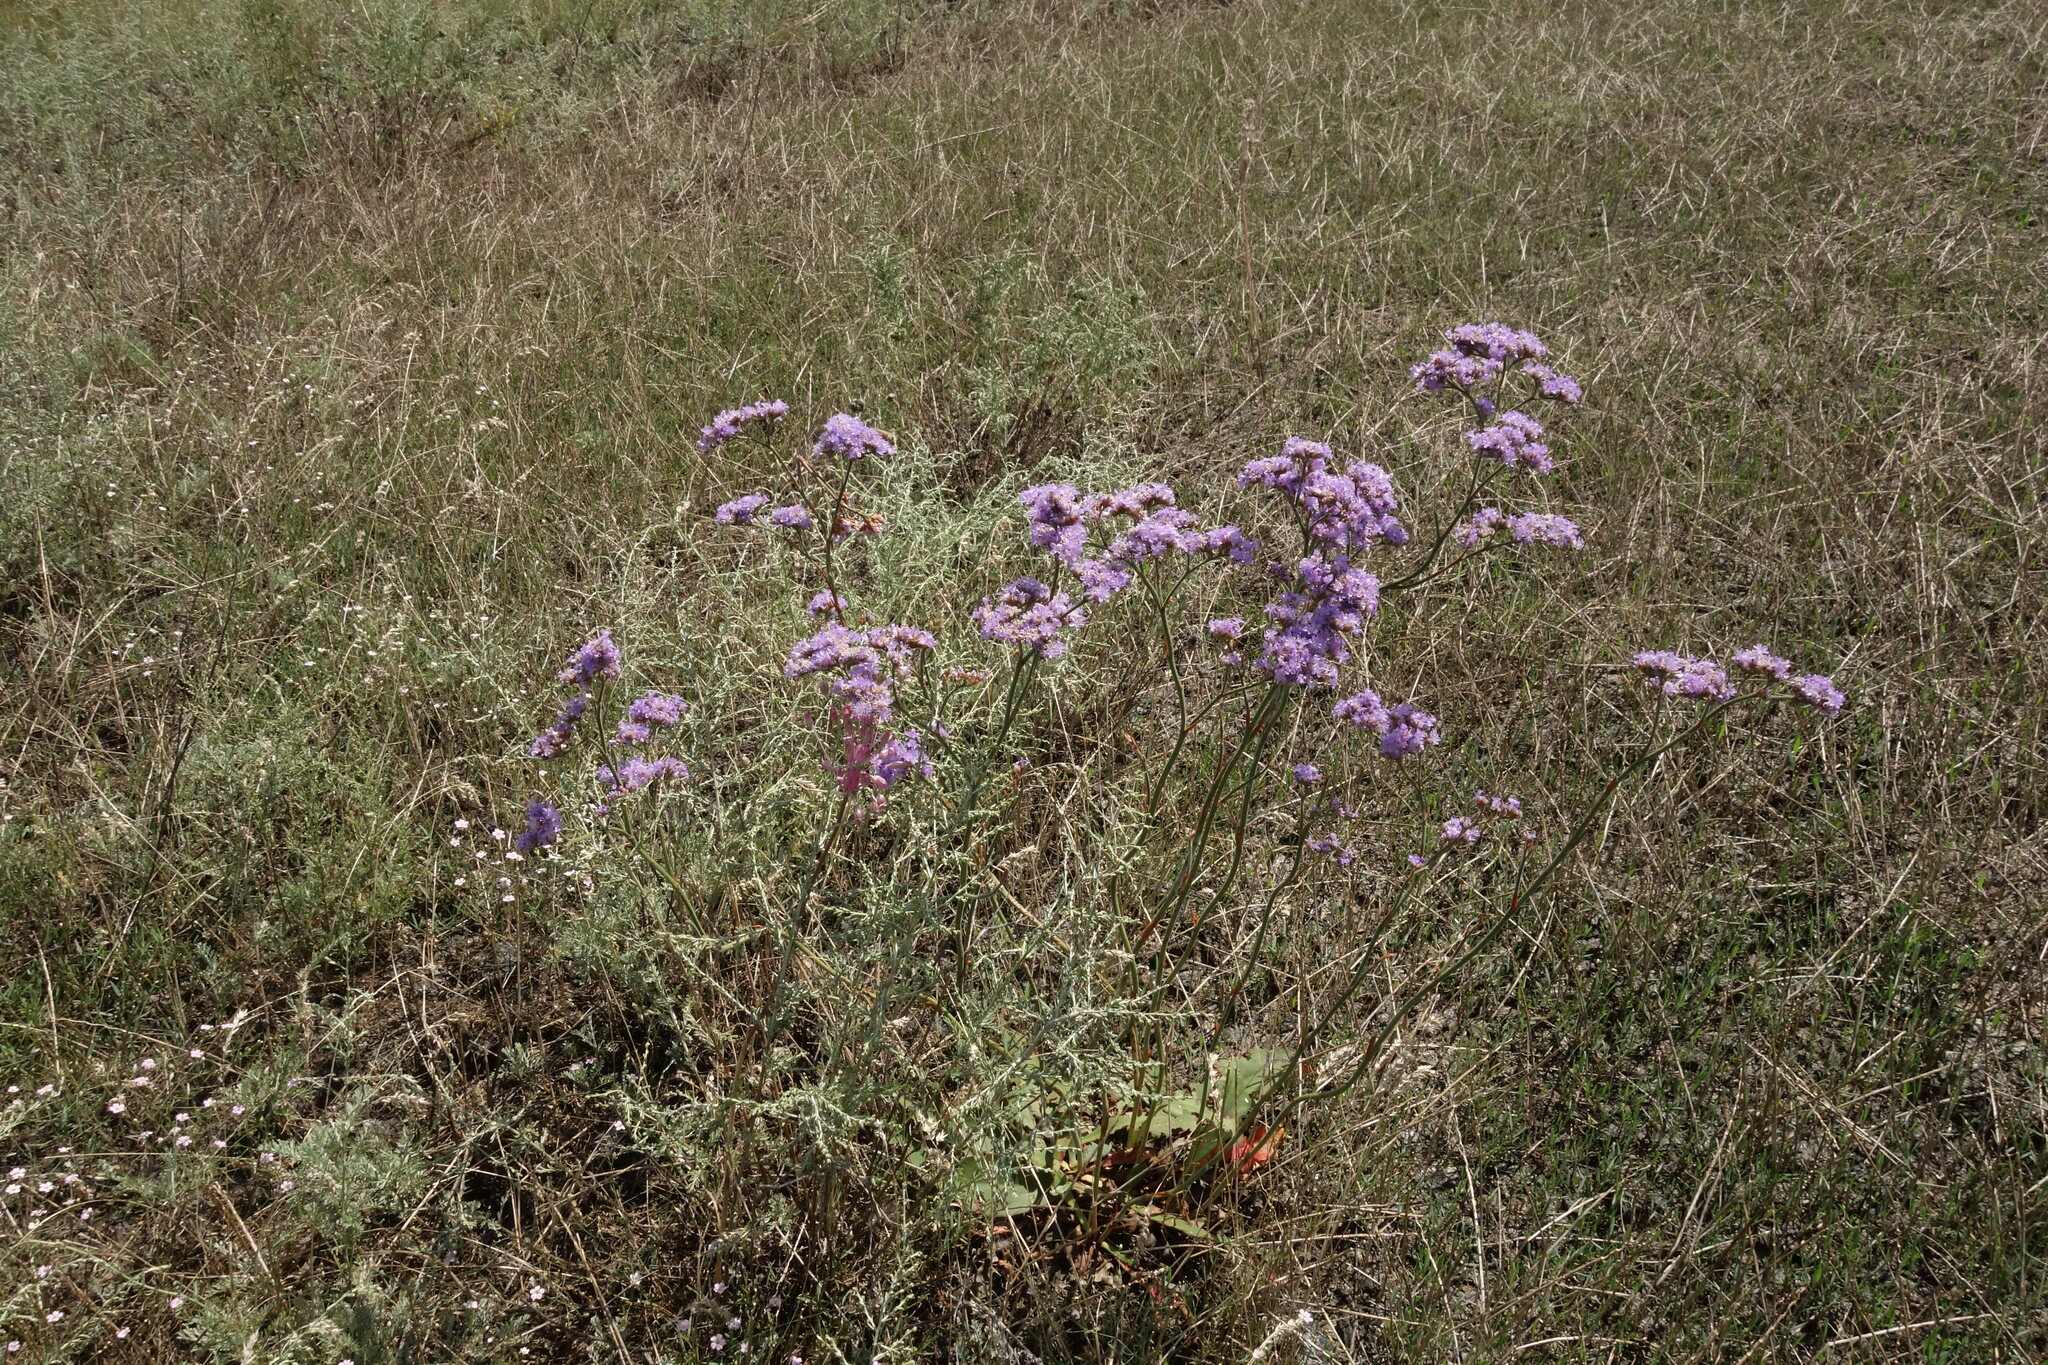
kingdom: Plantae
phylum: Tracheophyta
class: Magnoliopsida
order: Caryophyllales
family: Plumbaginaceae
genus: Limonium
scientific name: Limonium tomentellum
